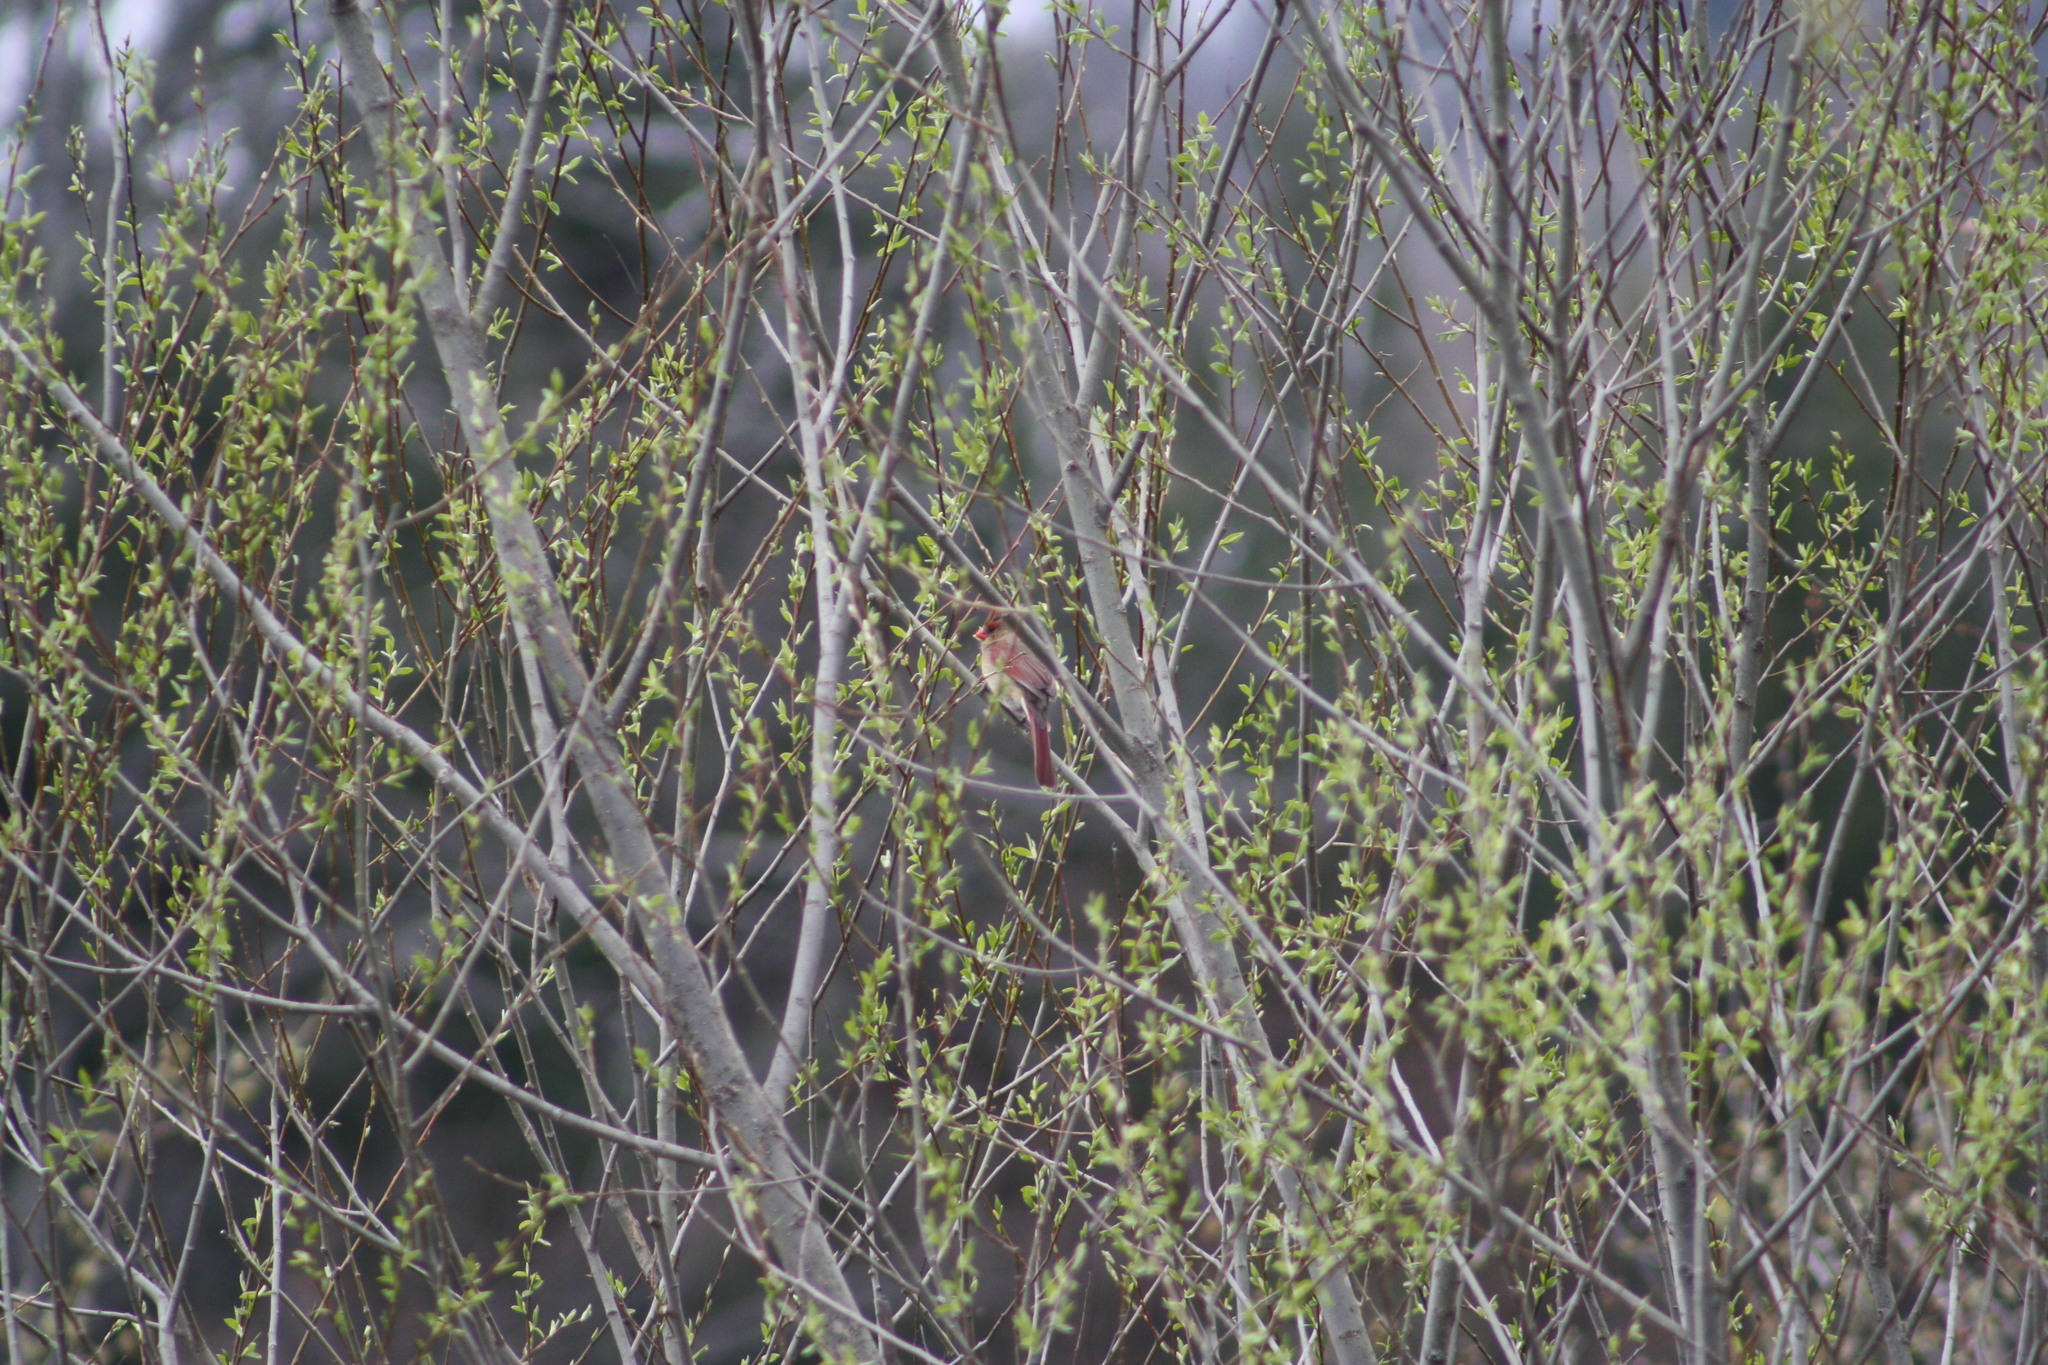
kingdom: Animalia
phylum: Chordata
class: Aves
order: Passeriformes
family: Cardinalidae
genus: Cardinalis
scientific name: Cardinalis cardinalis
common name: Northern cardinal
